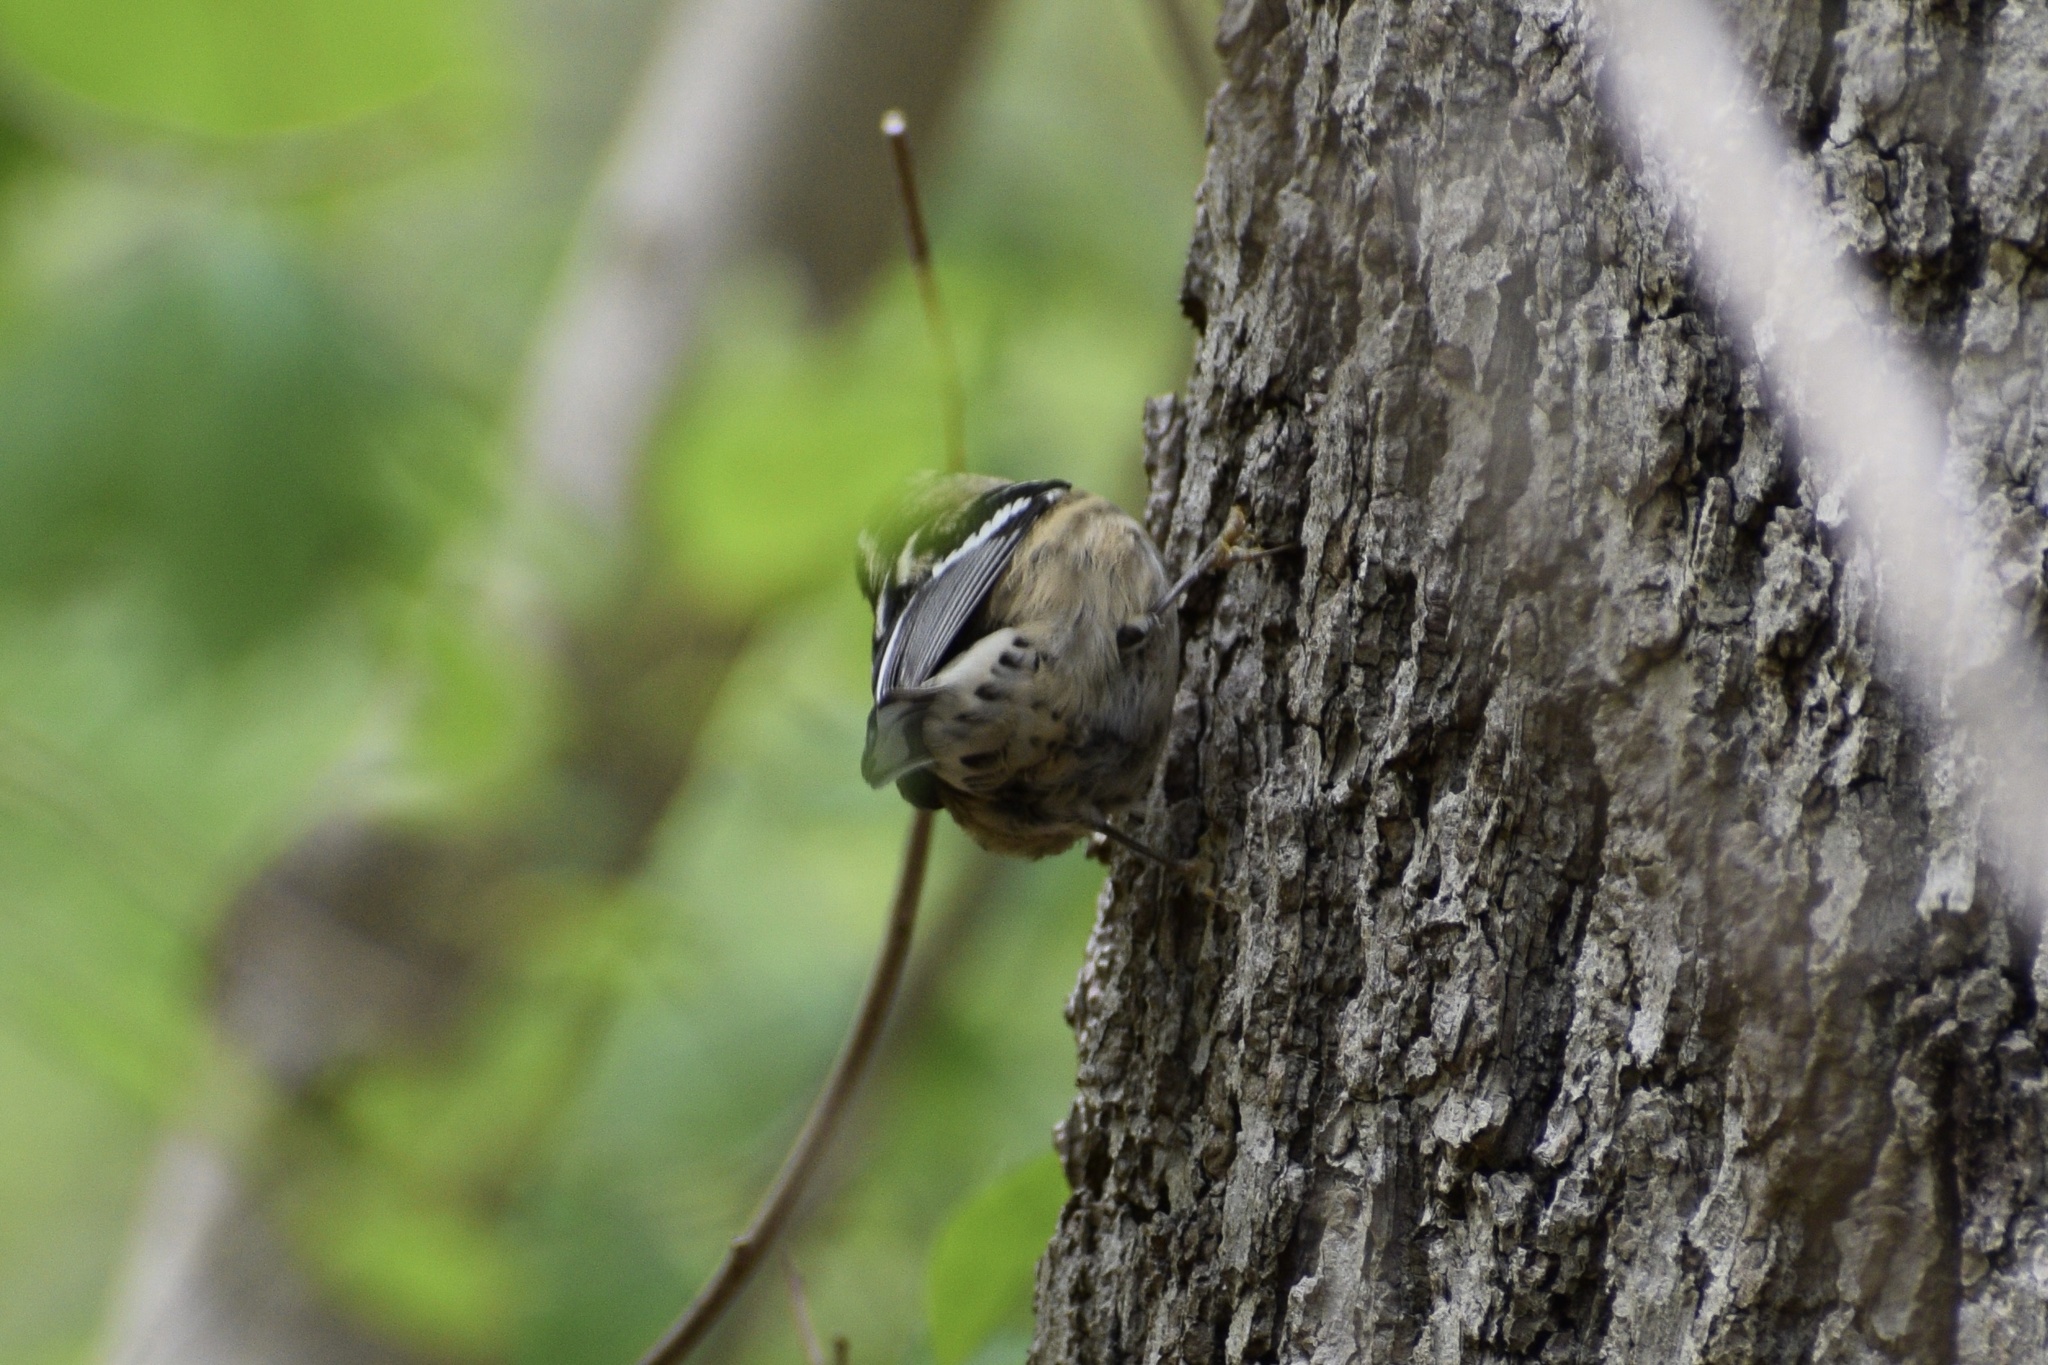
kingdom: Animalia
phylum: Chordata
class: Aves
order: Passeriformes
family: Parulidae
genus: Mniotilta
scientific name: Mniotilta varia
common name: Black-and-white warbler
